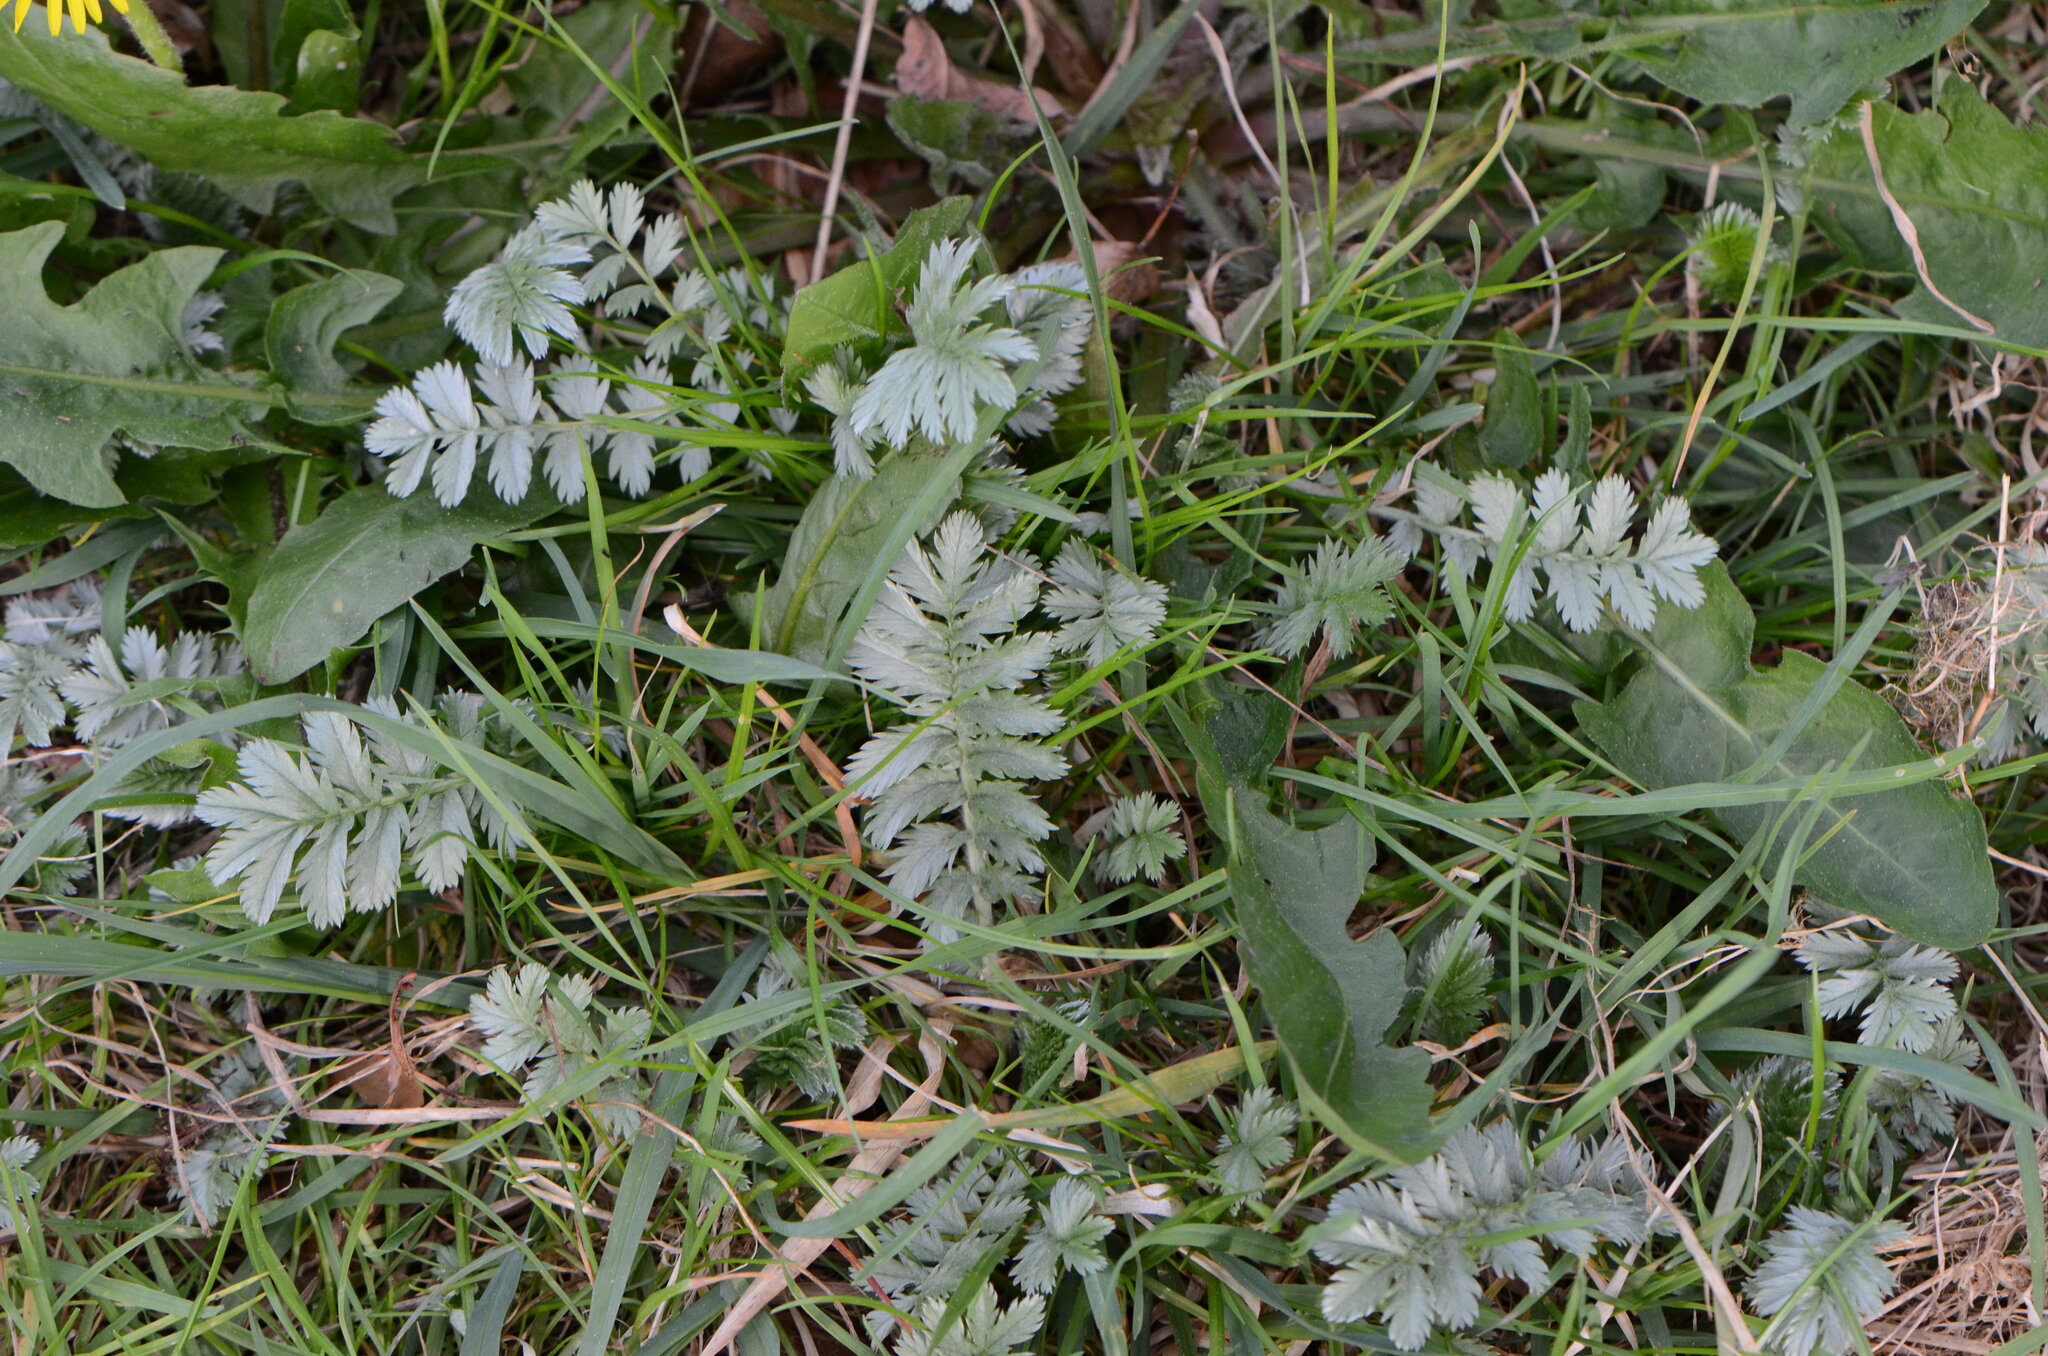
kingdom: Plantae
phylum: Tracheophyta
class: Magnoliopsida
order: Rosales
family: Rosaceae
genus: Argentina
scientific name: Argentina anserina
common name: Common silverweed
